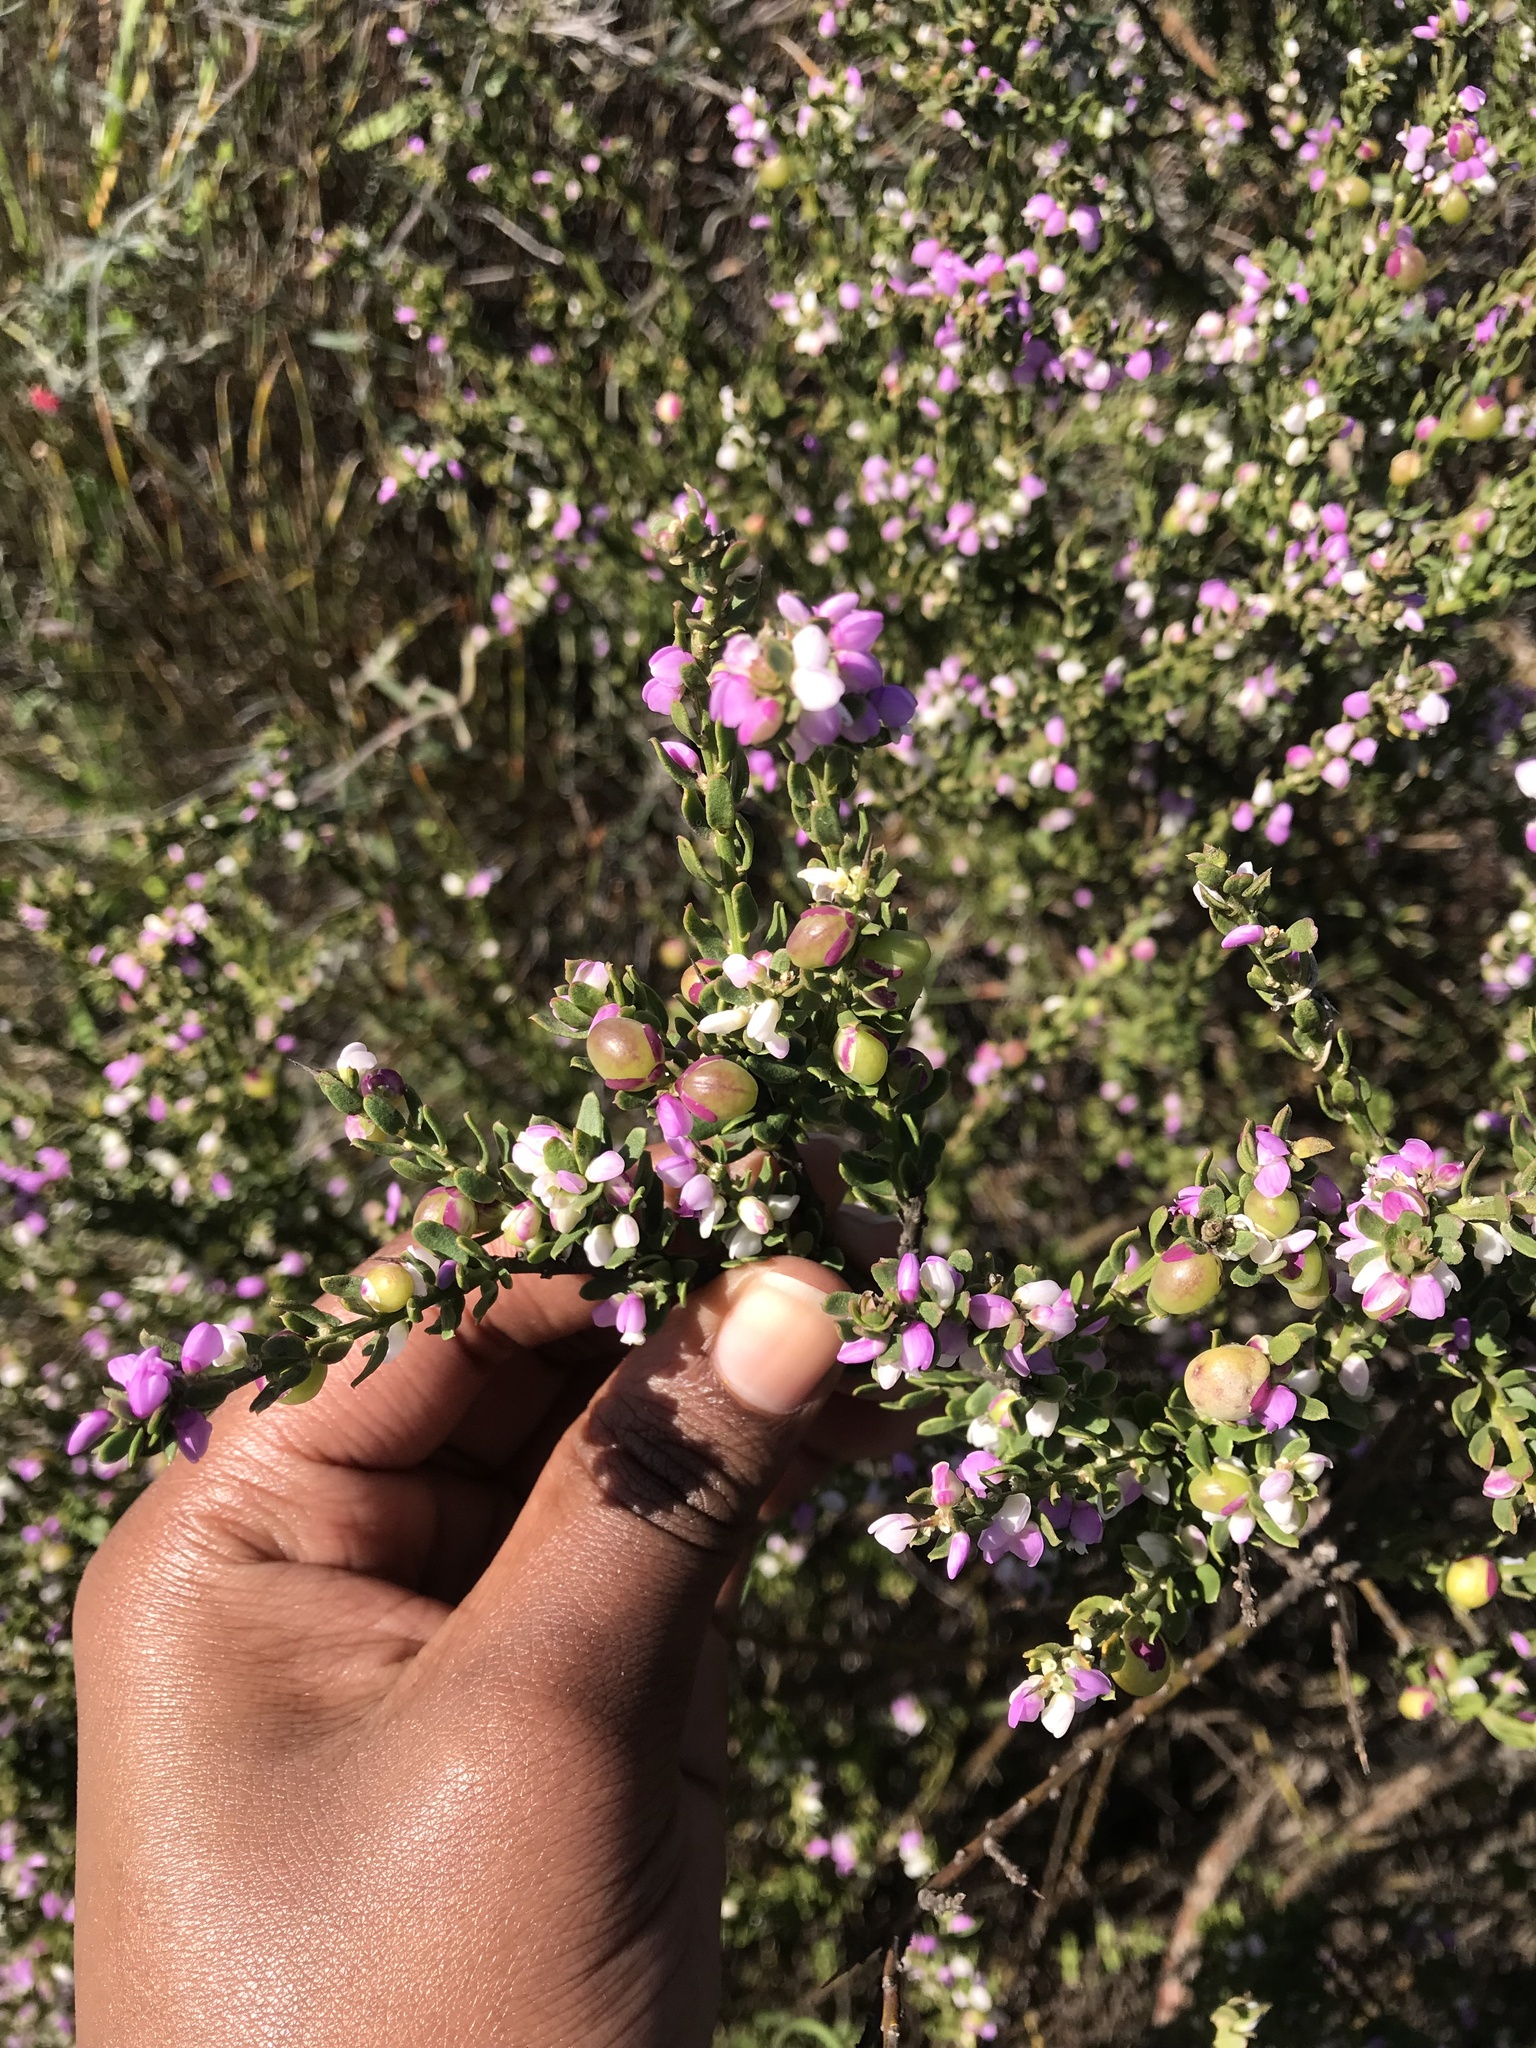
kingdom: Plantae
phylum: Tracheophyta
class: Magnoliopsida
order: Fabales
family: Polygalaceae
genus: Muraltia
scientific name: Muraltia spinosa
